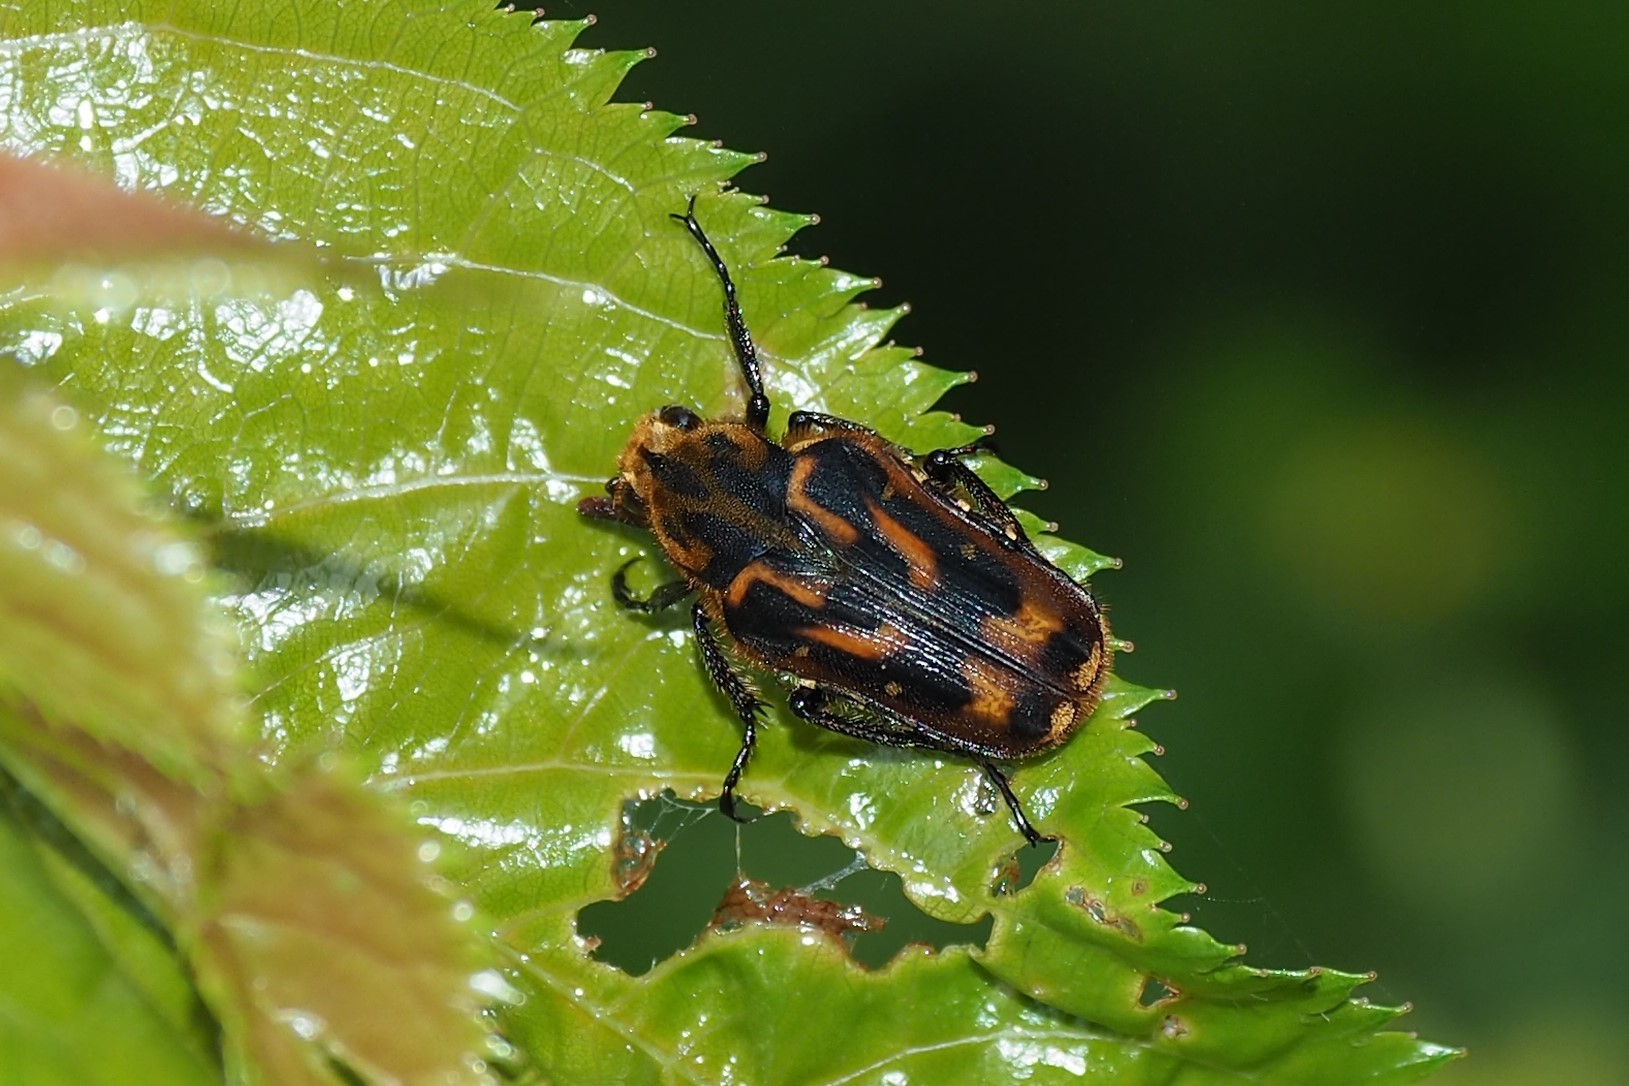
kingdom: Animalia
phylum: Arthropoda
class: Insecta
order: Coleoptera
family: Scarabaeidae
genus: Euselates
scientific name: Euselates proxima
